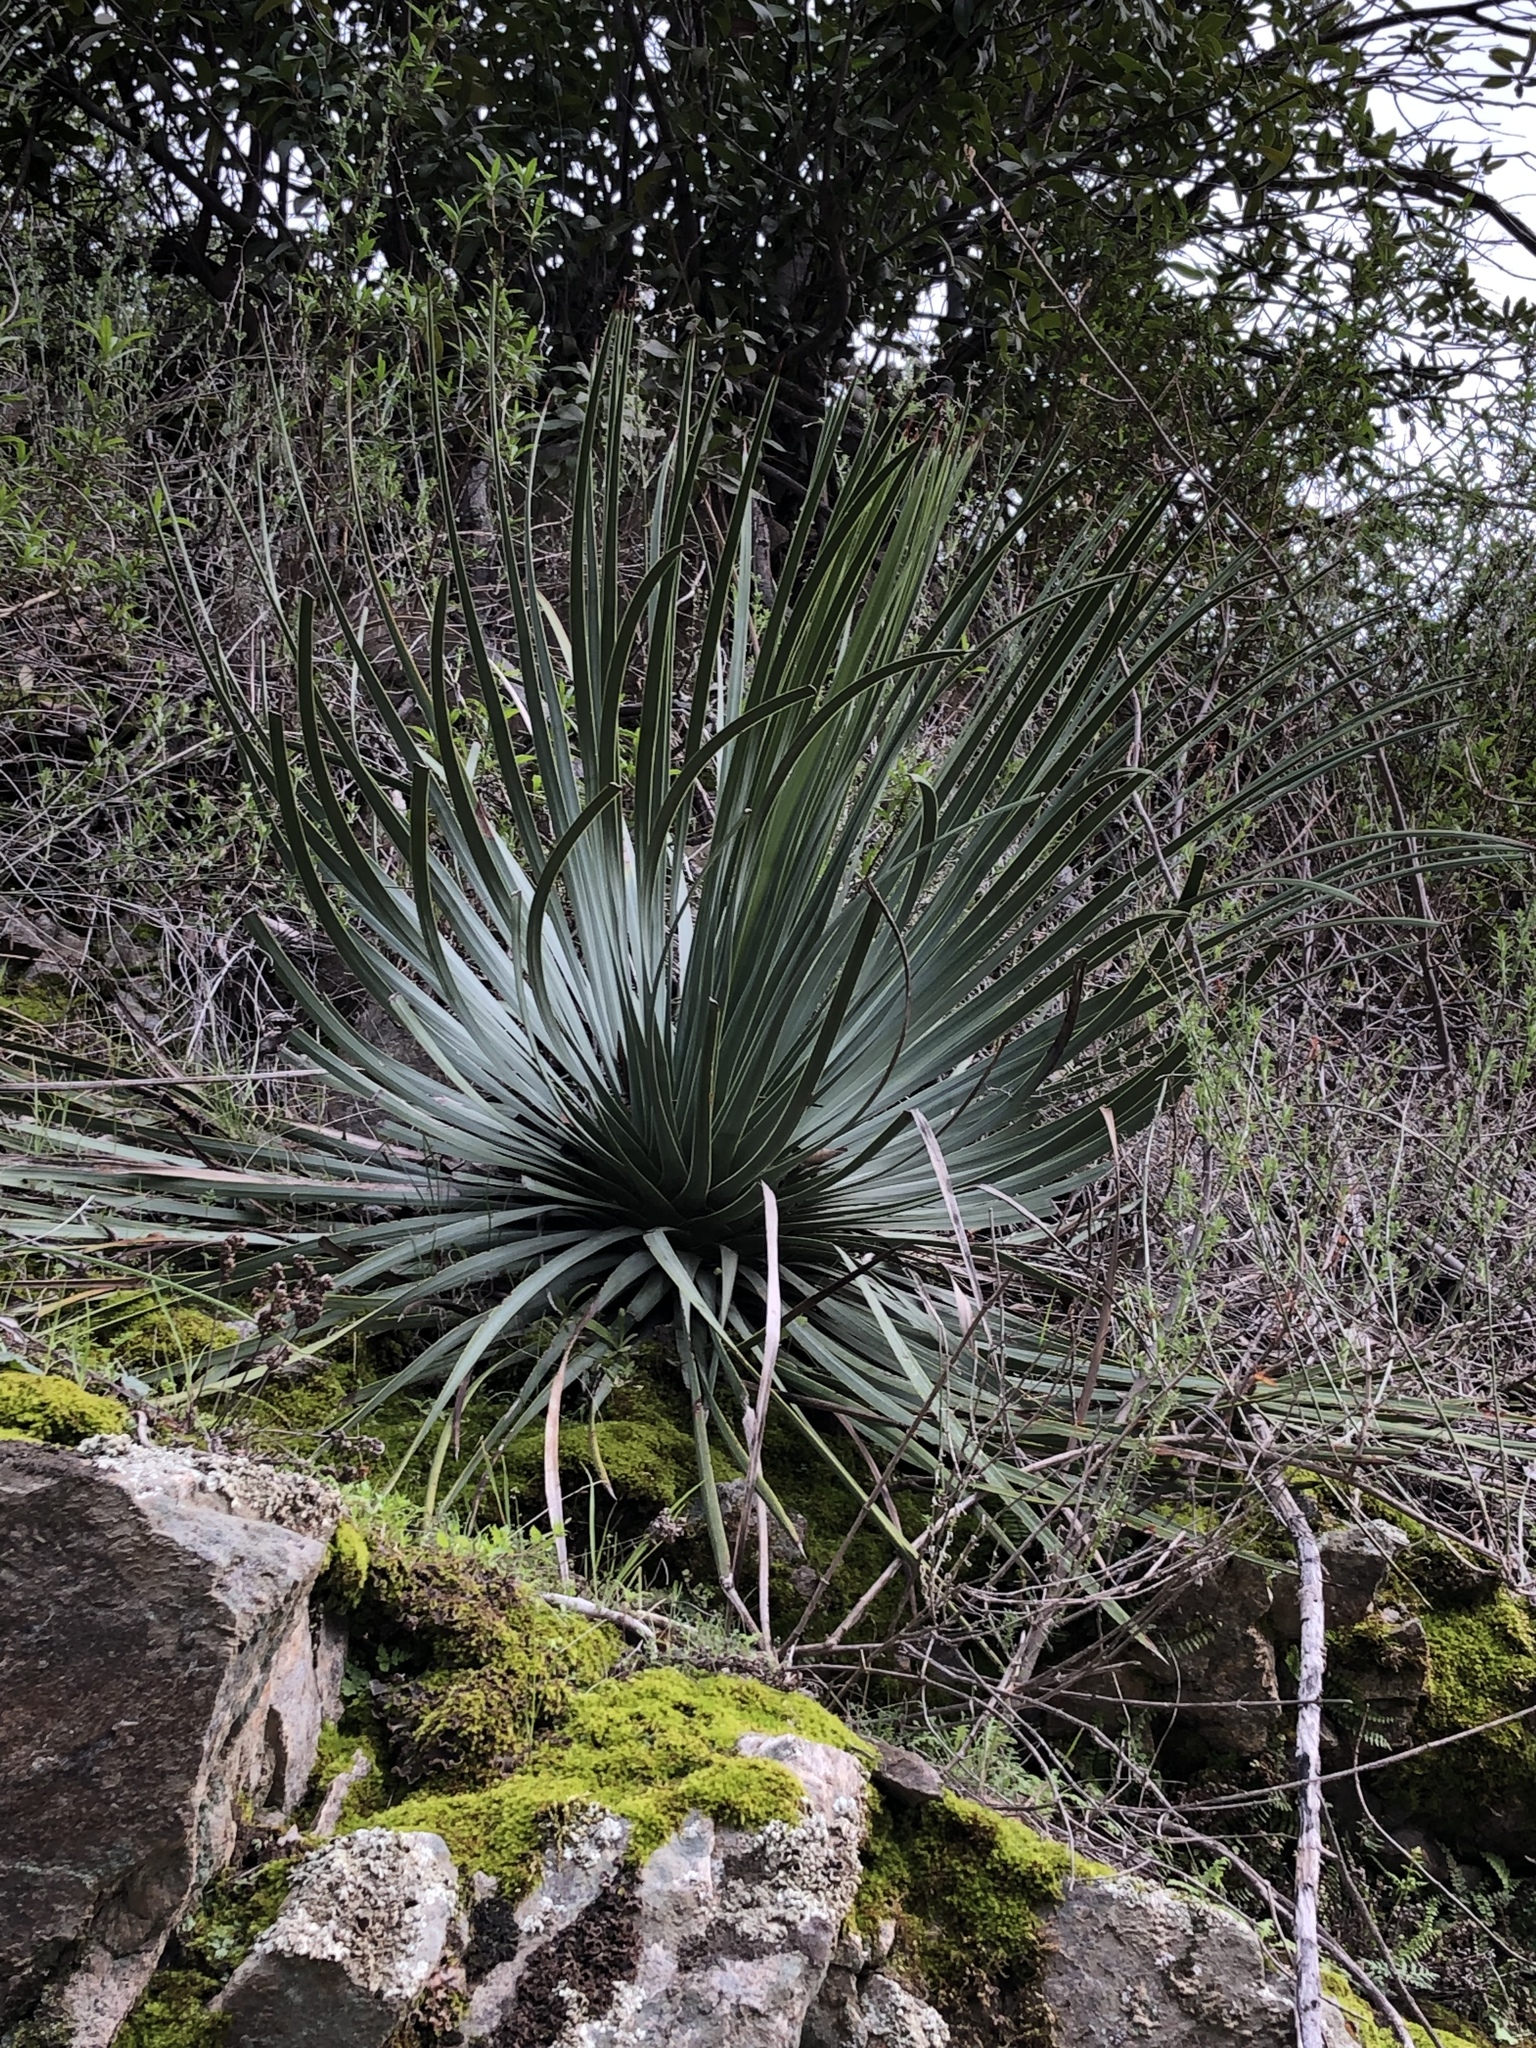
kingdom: Plantae
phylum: Tracheophyta
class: Liliopsida
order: Asparagales
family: Asparagaceae
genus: Hesperoyucca
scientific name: Hesperoyucca whipplei
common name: Our lord's-candle
